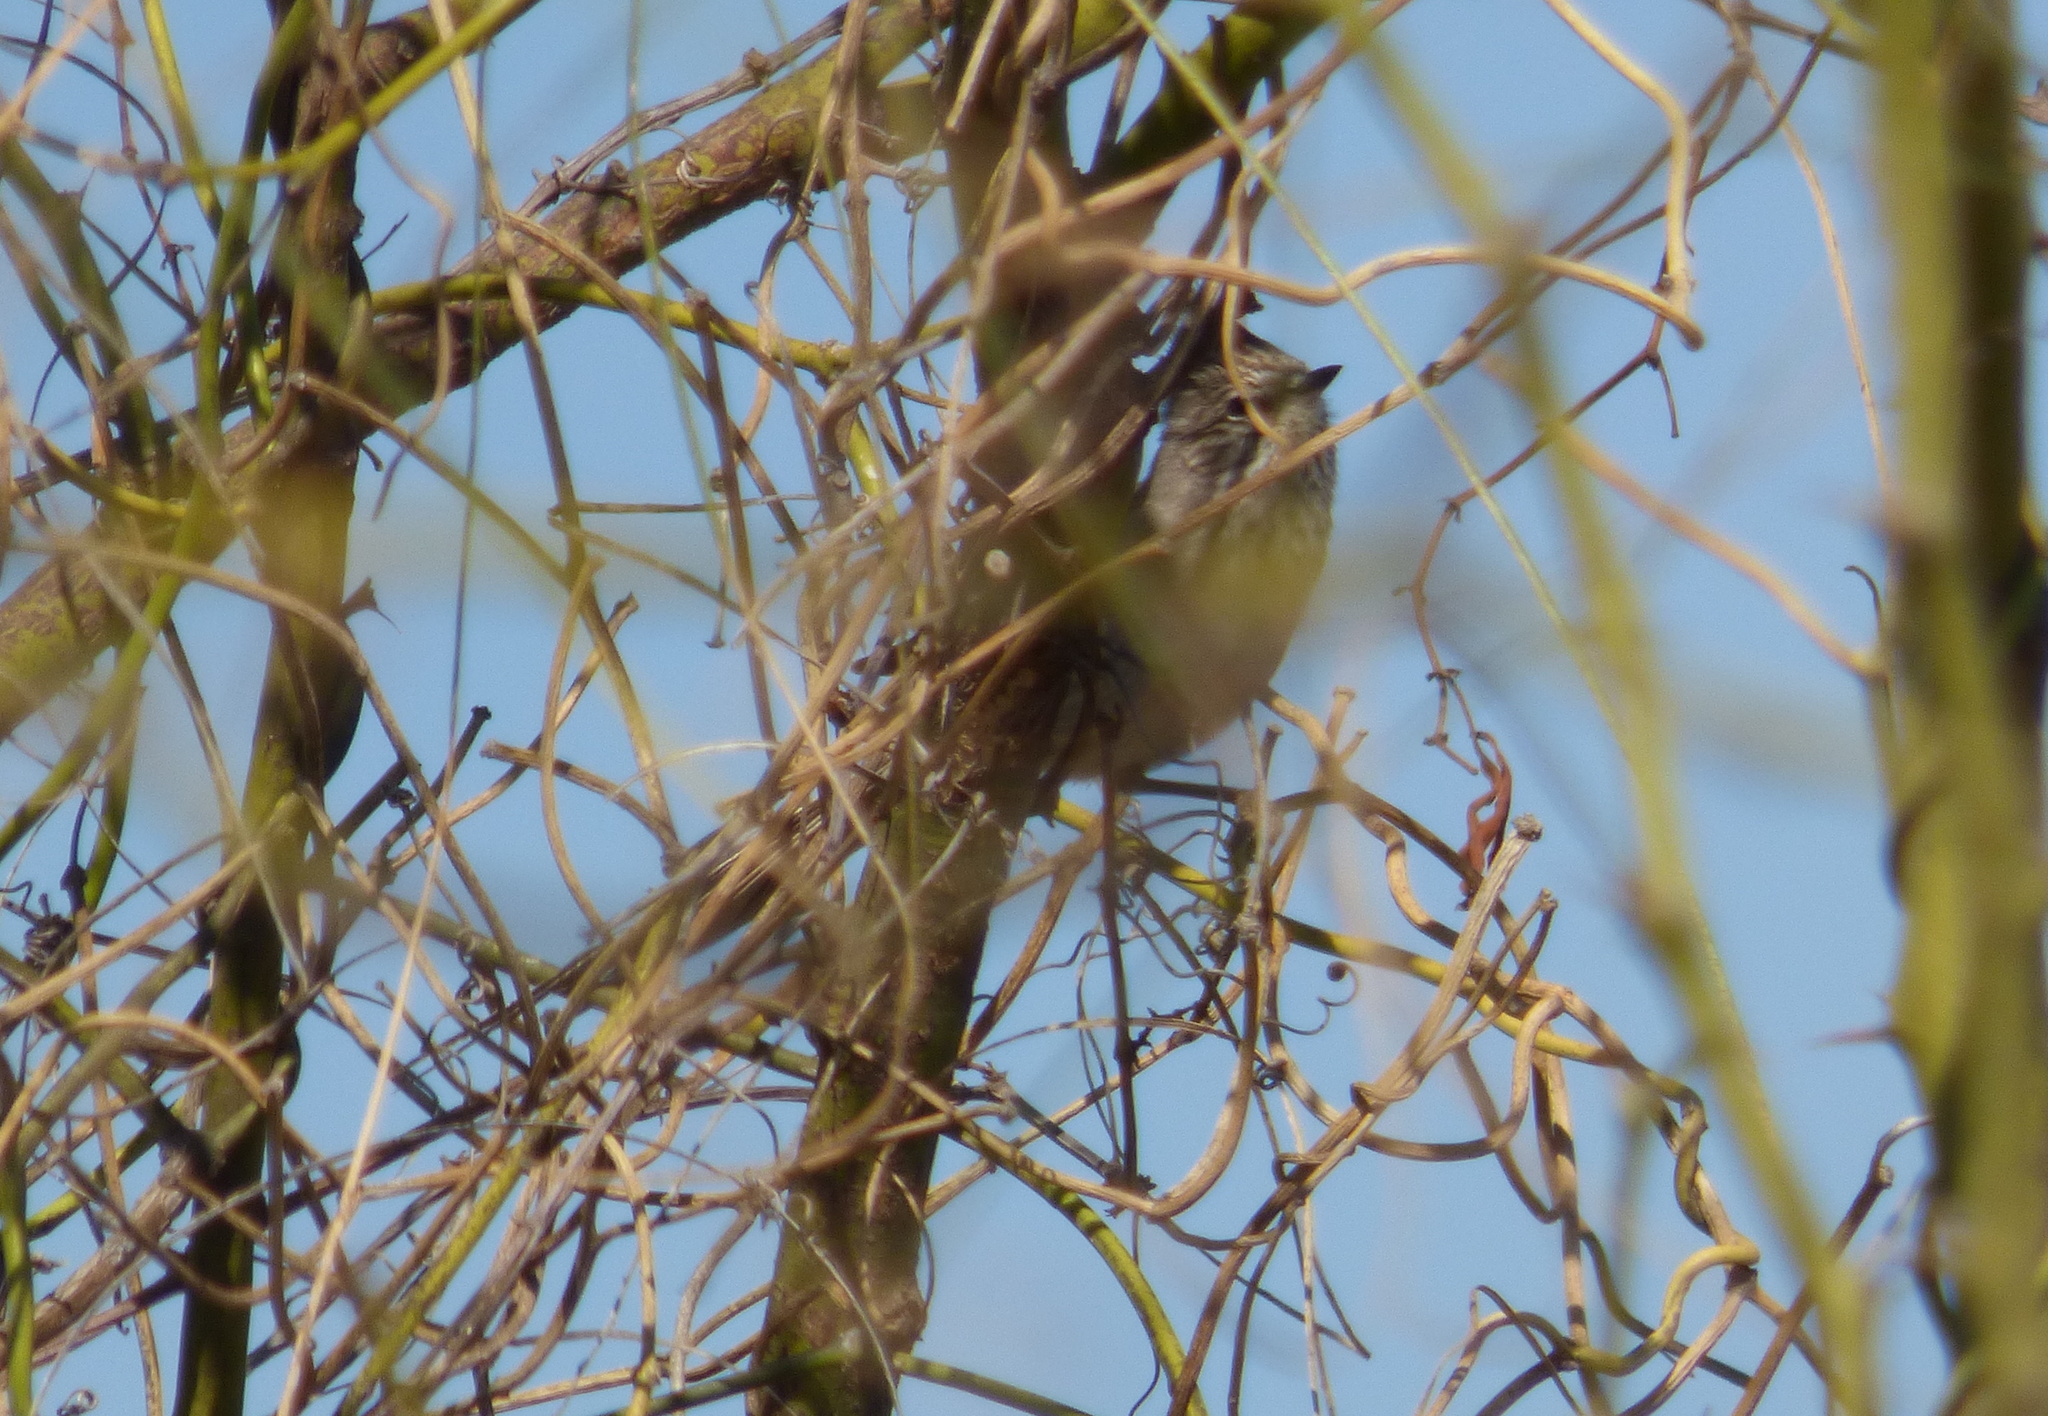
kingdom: Animalia
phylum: Chordata
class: Aves
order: Passeriformes
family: Furnariidae
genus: Leptasthenura
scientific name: Leptasthenura platensis
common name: Tufted tit-spinetail
